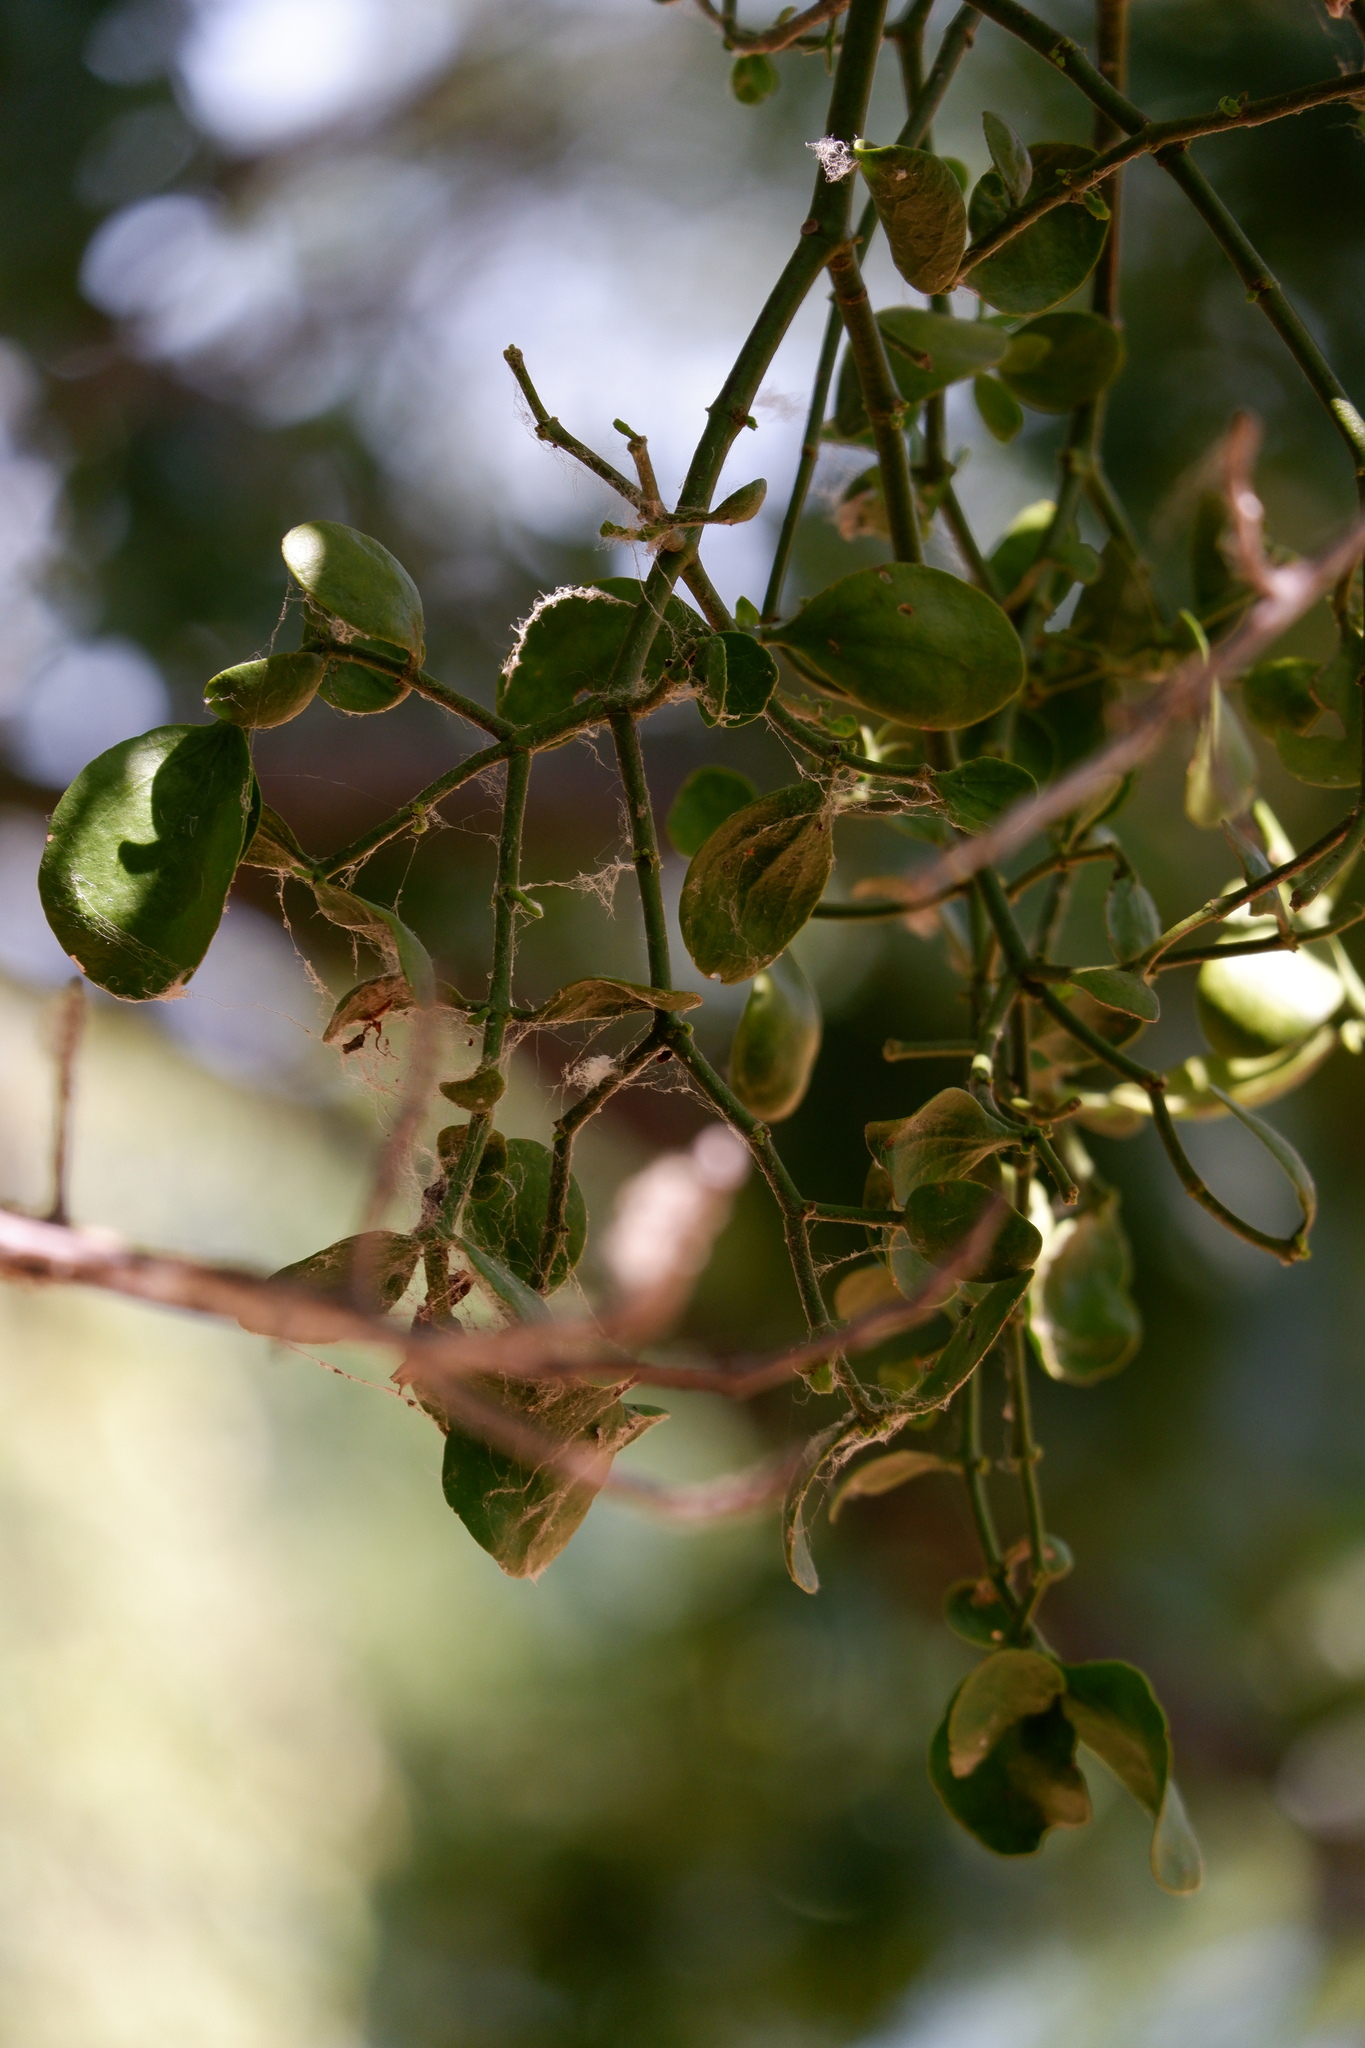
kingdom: Plantae
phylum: Tracheophyta
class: Magnoliopsida
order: Santalales
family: Viscaceae
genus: Phoradendron
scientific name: Phoradendron leucarpum
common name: Pacific mistletoe
